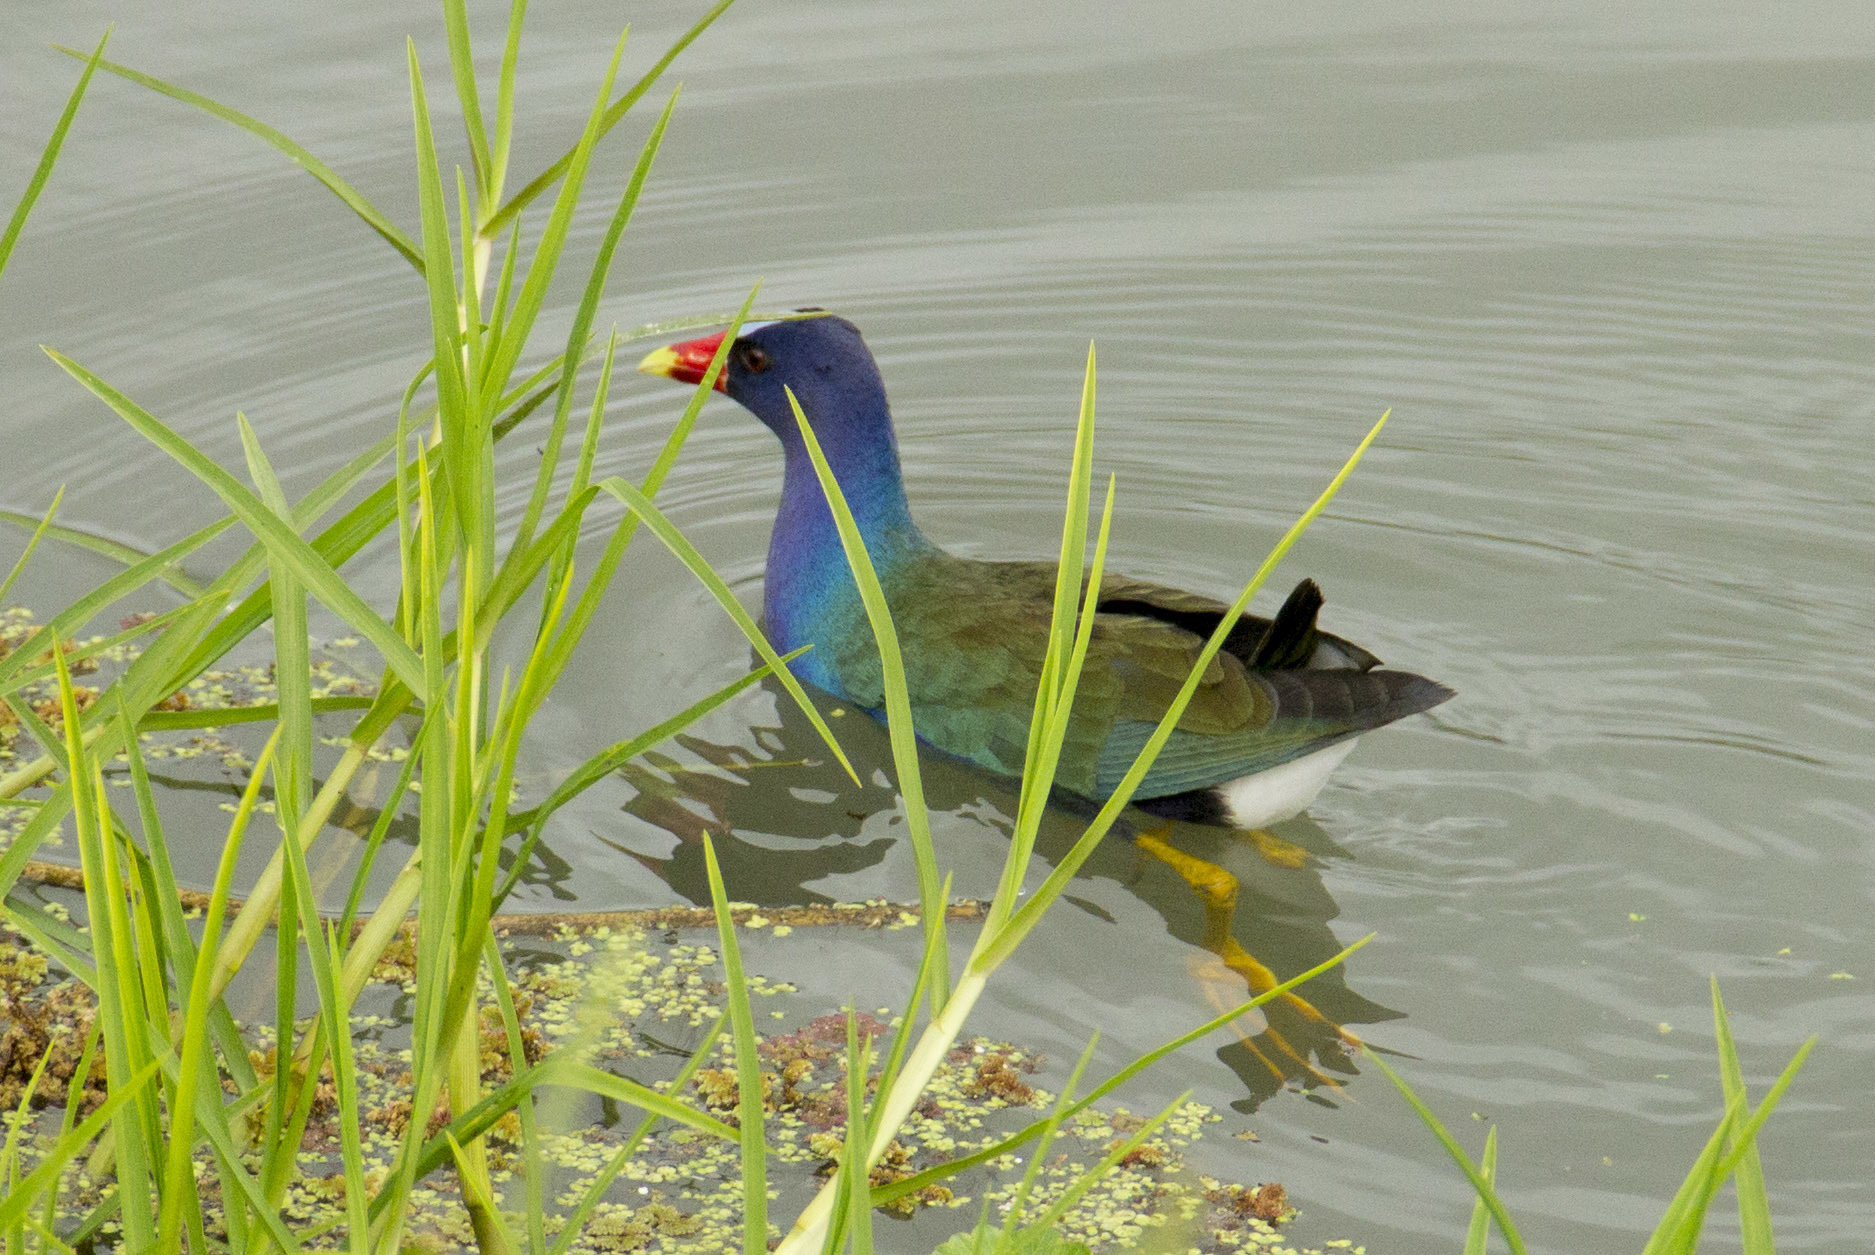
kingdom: Animalia
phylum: Chordata
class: Aves
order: Gruiformes
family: Rallidae
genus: Porphyrio
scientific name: Porphyrio martinica
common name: Purple gallinule
